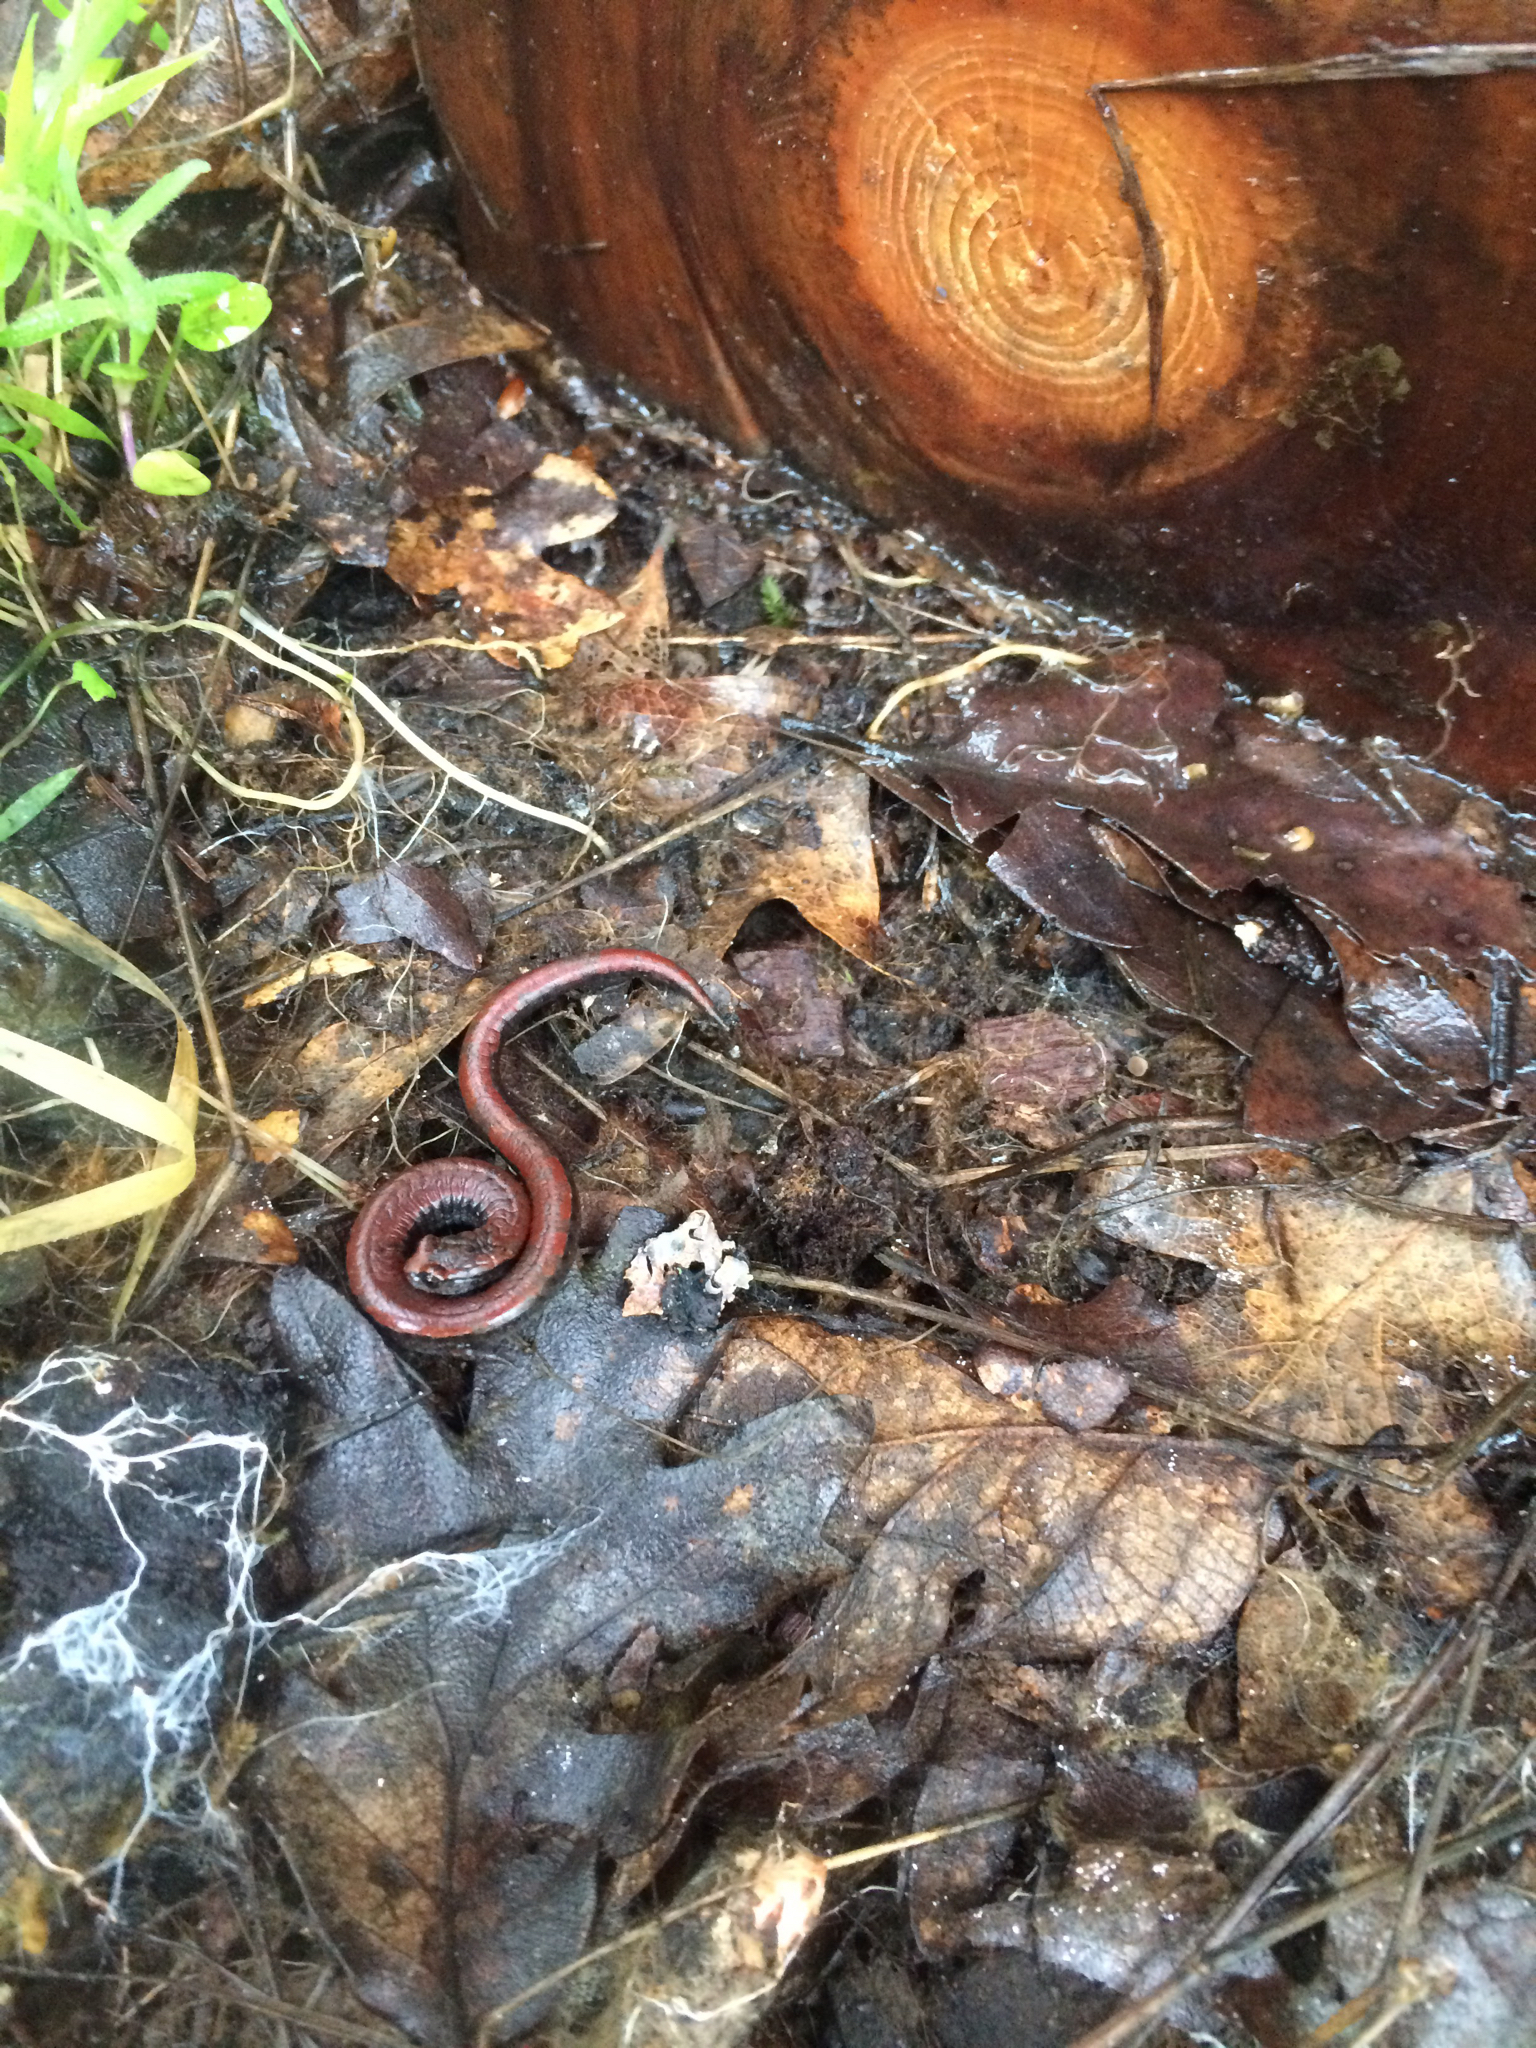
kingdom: Animalia
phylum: Chordata
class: Amphibia
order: Caudata
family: Plethodontidae
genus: Batrachoseps
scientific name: Batrachoseps attenuatus
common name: California slender salamander
